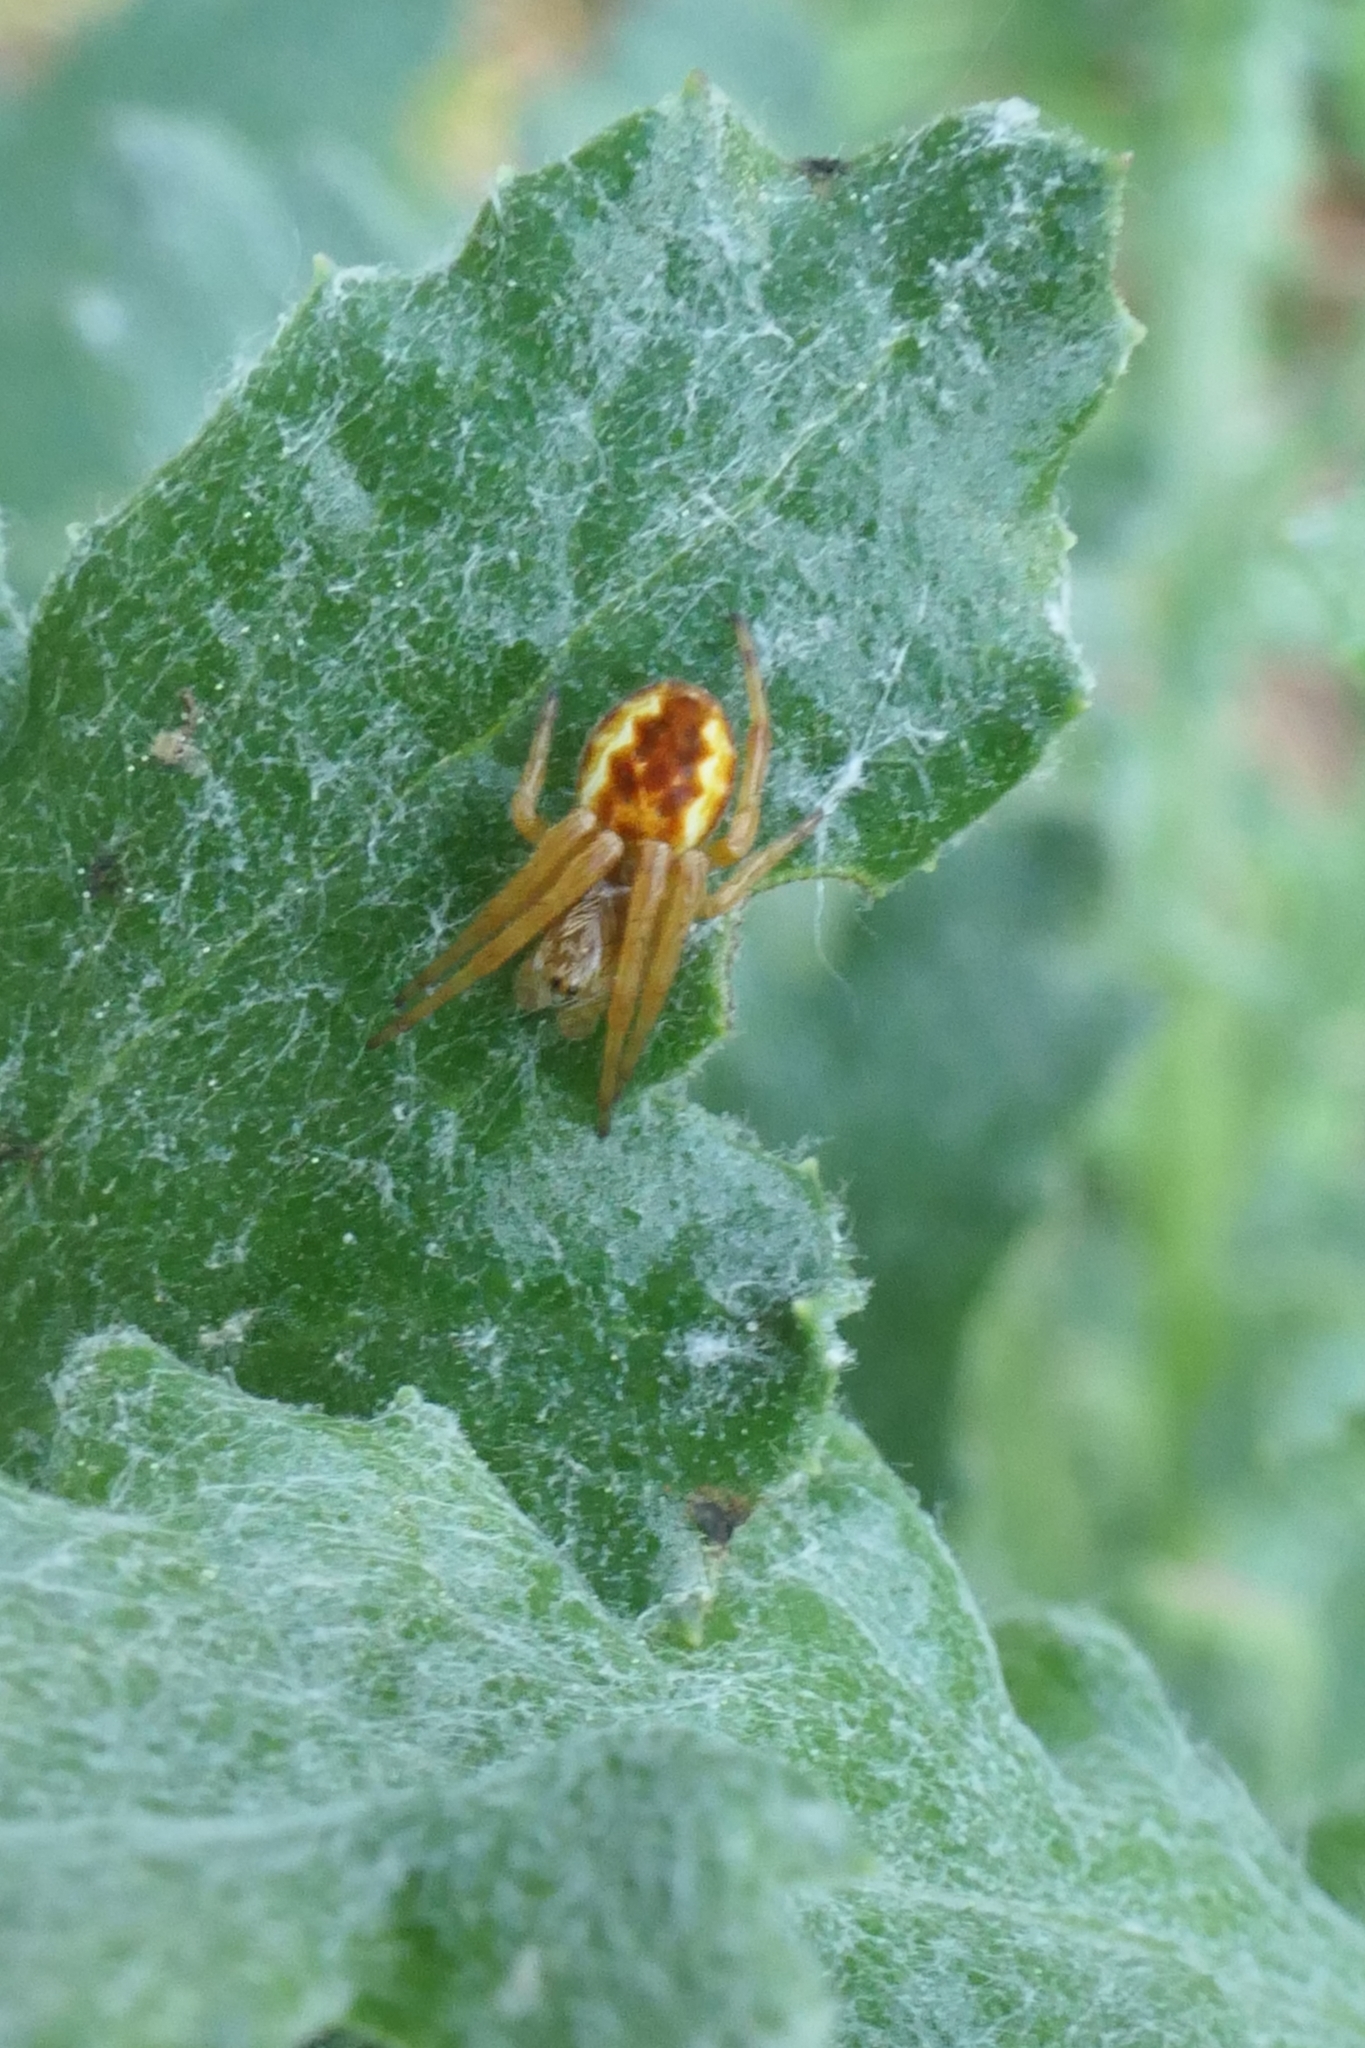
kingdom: Animalia
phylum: Arthropoda
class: Arachnida
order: Araneae
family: Araneidae
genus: Salsa
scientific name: Salsa fuliginata
